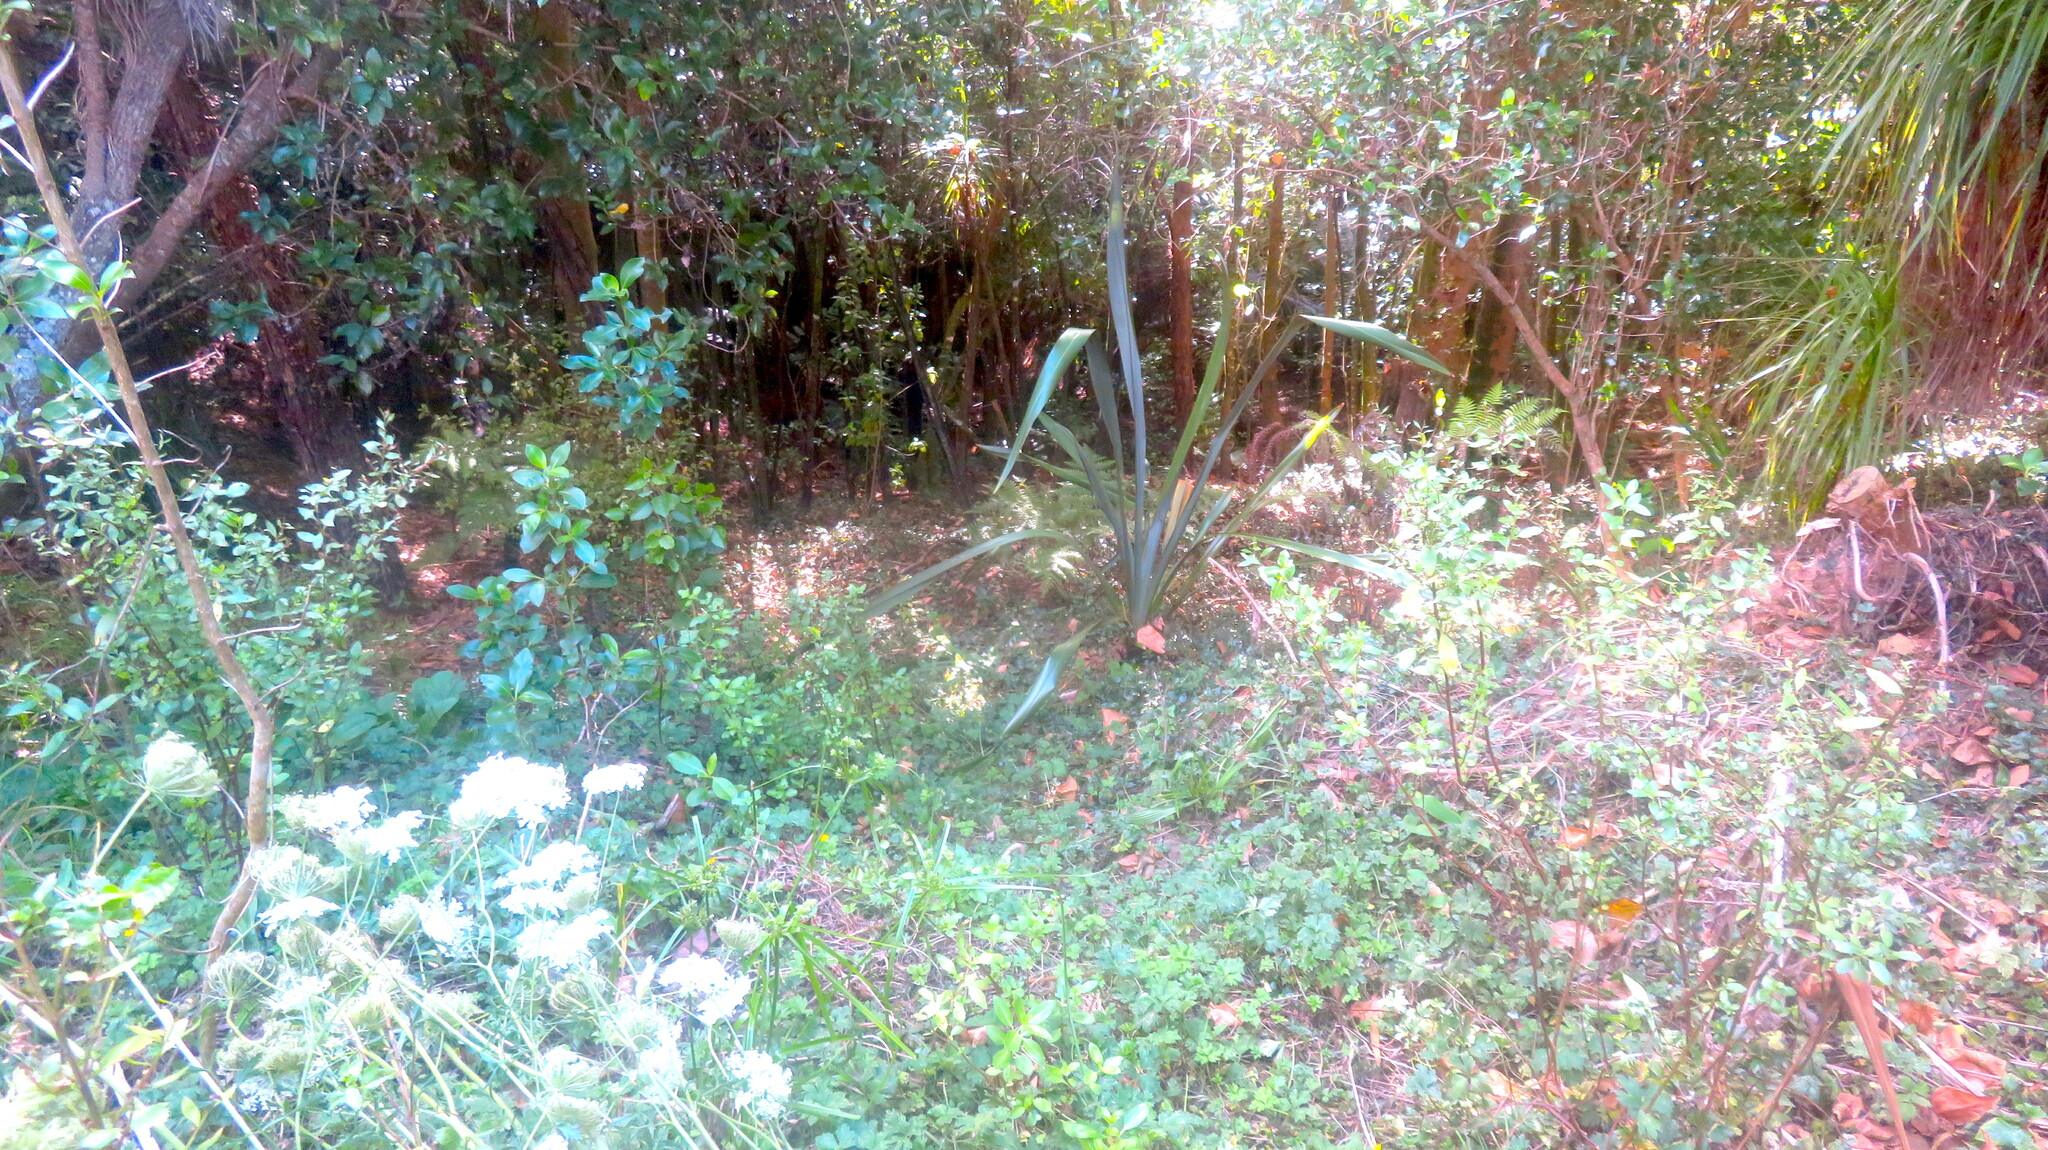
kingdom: Plantae
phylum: Tracheophyta
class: Liliopsida
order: Asparagales
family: Asphodelaceae
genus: Phormium
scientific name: Phormium tenax
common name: New zealand flax
